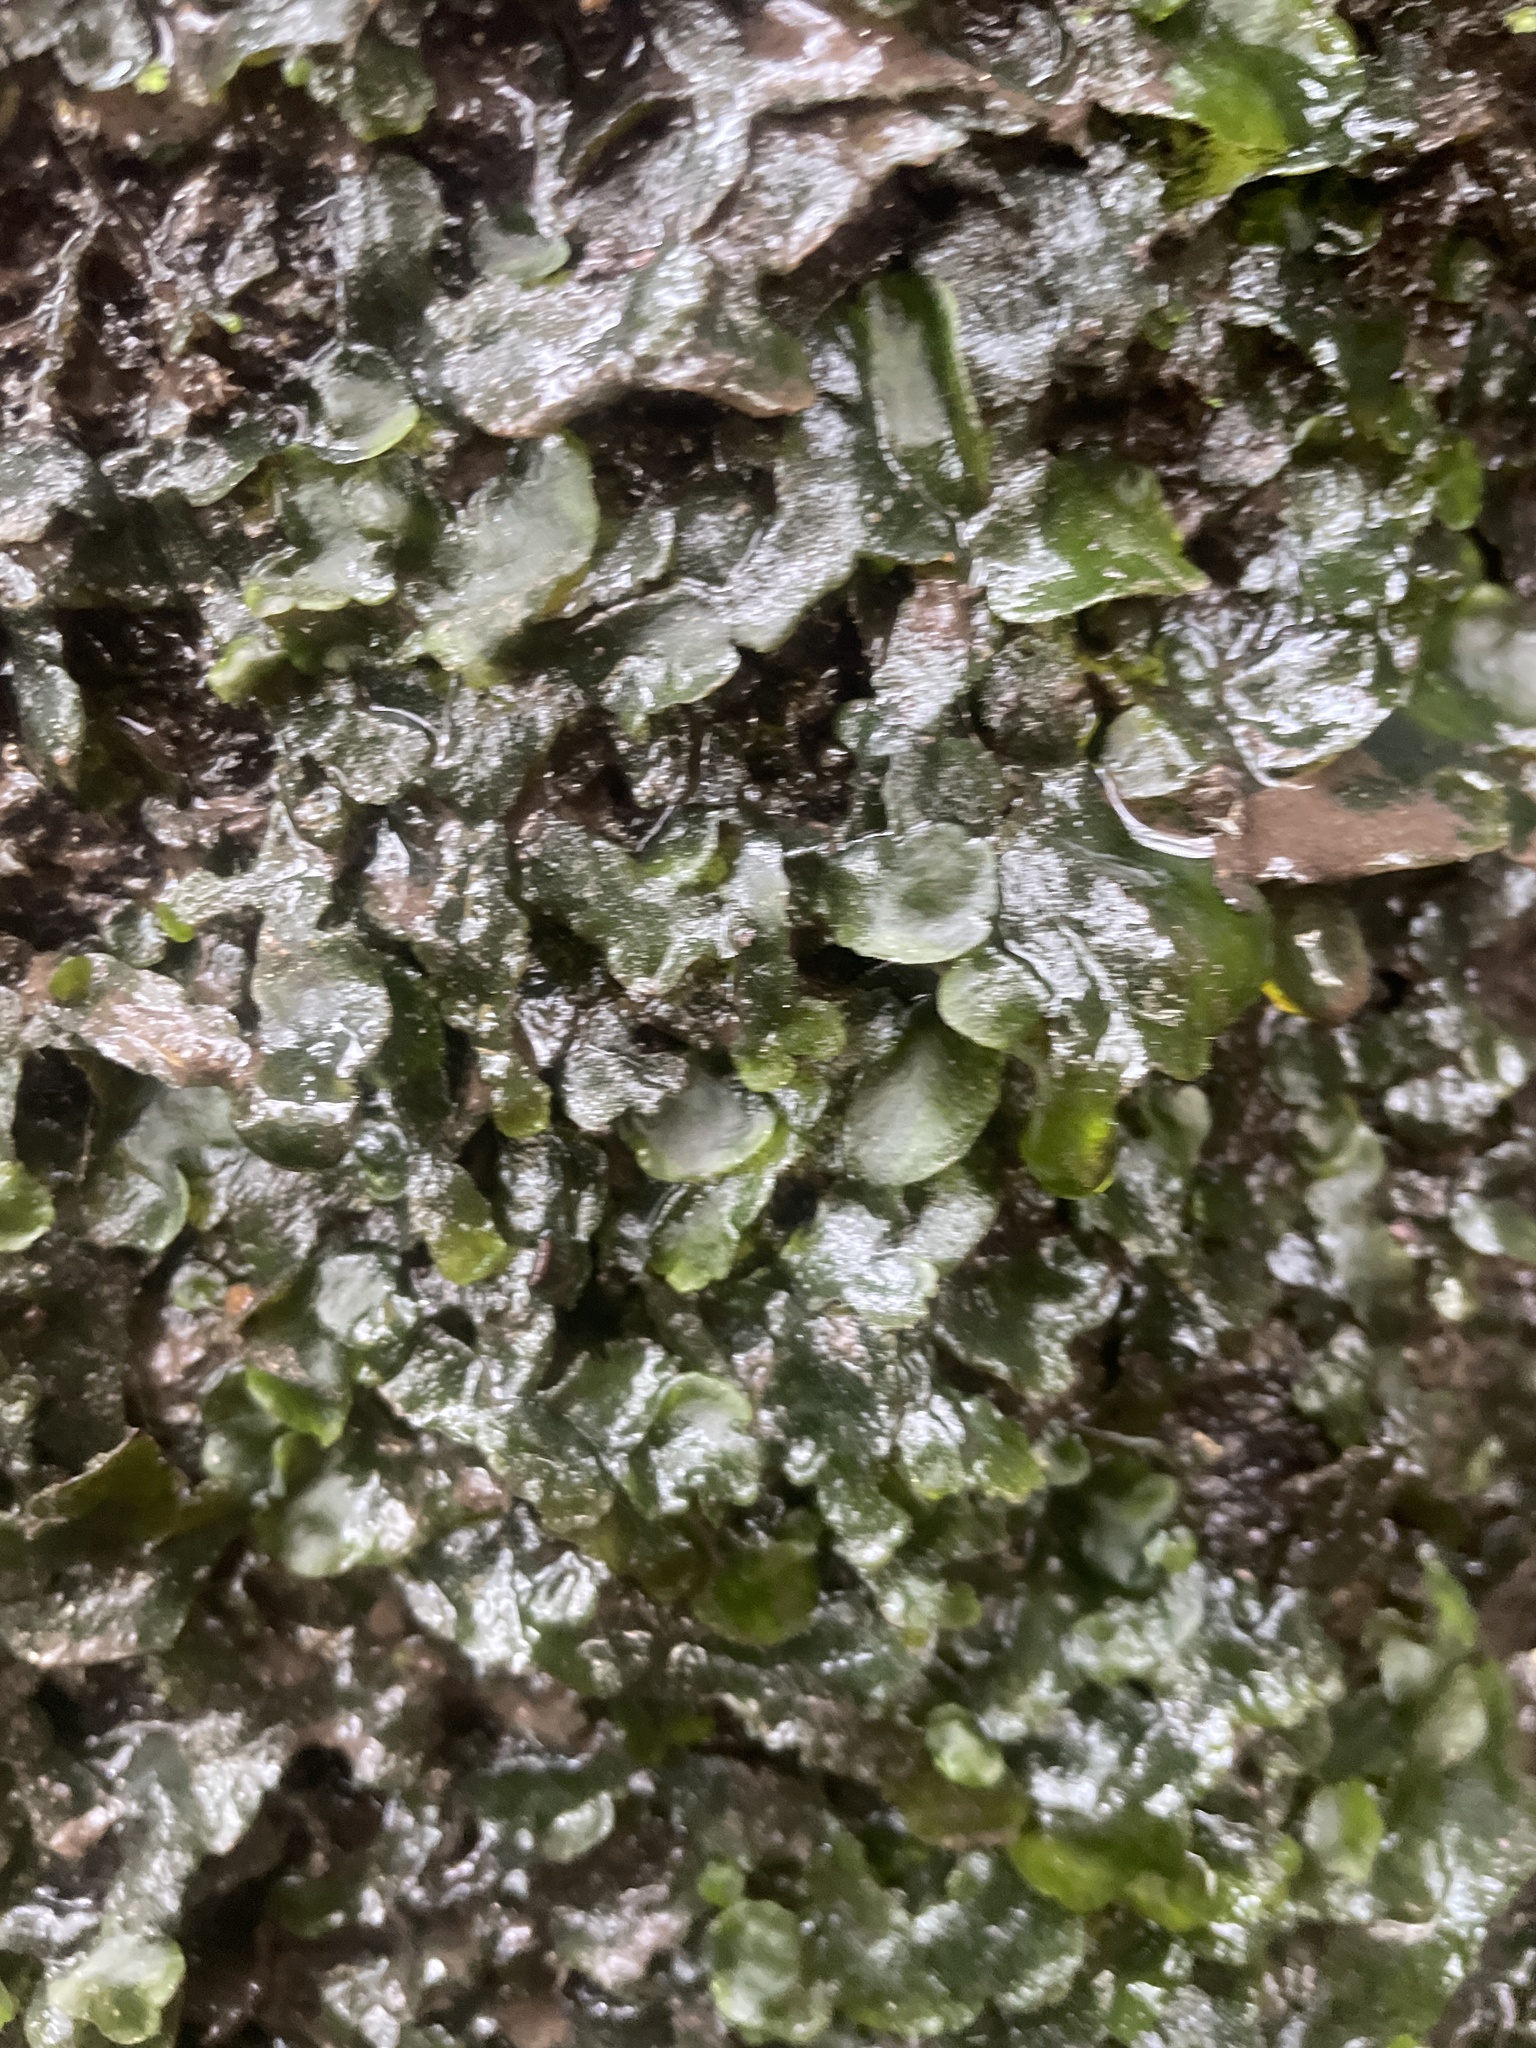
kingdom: Plantae
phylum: Marchantiophyta
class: Marchantiopsida
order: Marchantiales
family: Dumortieraceae
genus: Dumortiera
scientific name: Dumortiera hirsuta
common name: Dumortier's liverwort
